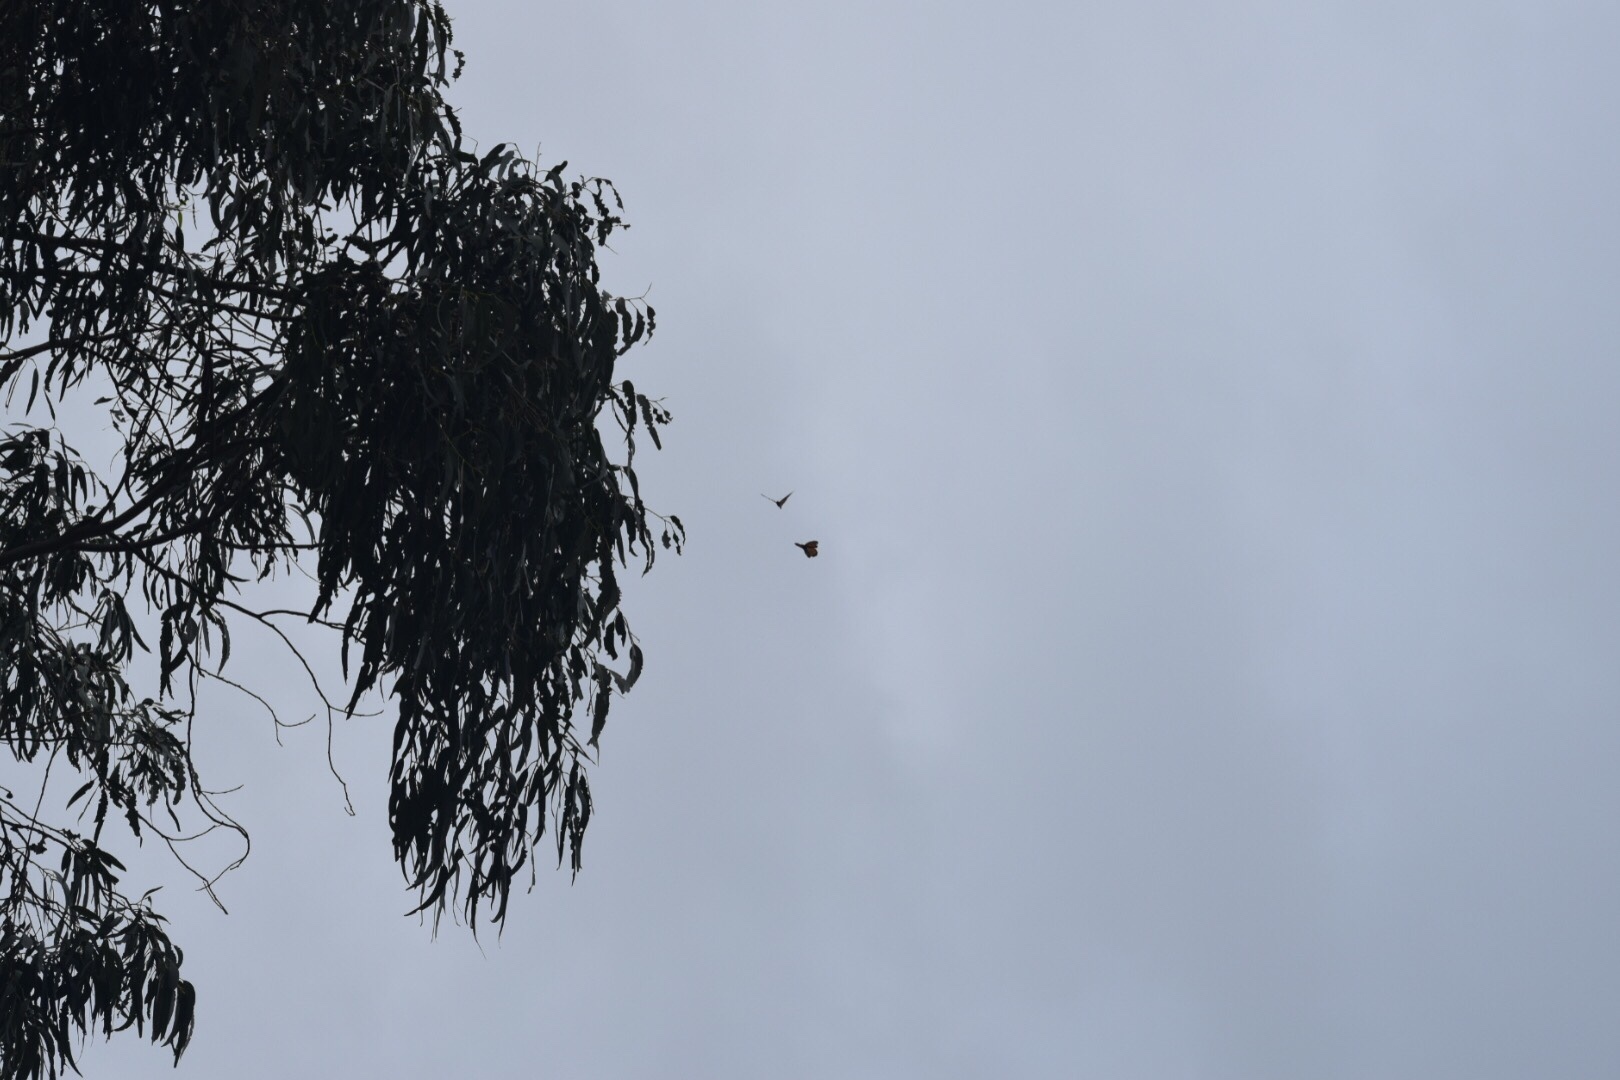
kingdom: Animalia
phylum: Arthropoda
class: Insecta
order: Lepidoptera
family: Nymphalidae
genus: Danaus
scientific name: Danaus plexippus
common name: Monarch
